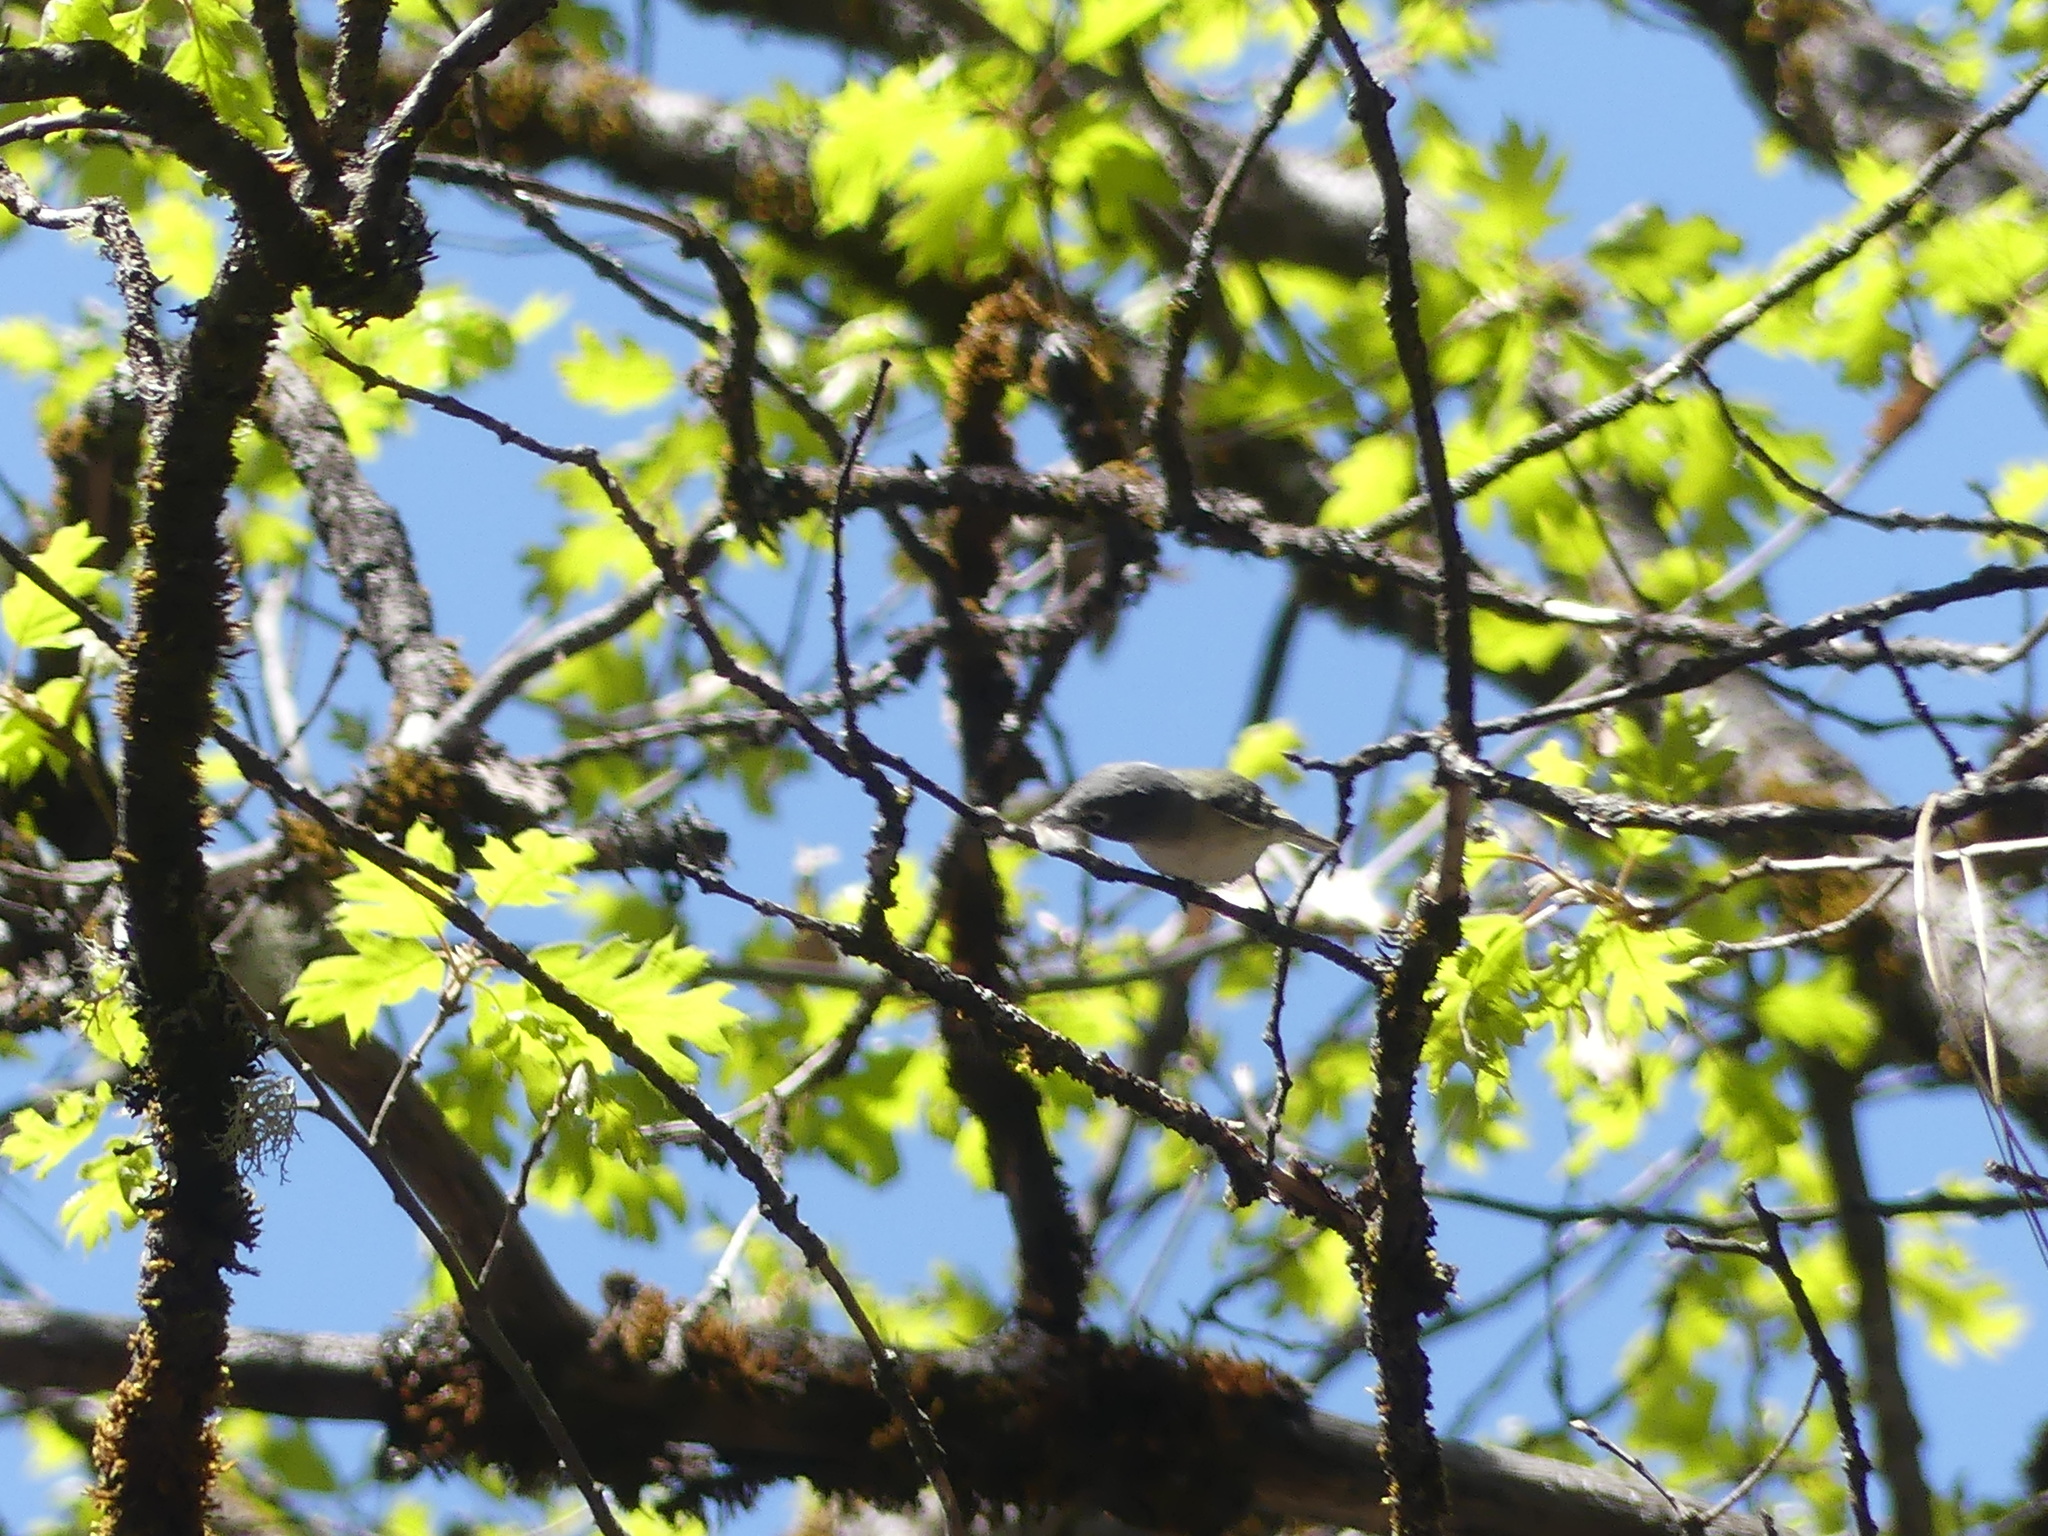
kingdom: Animalia
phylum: Chordata
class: Aves
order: Passeriformes
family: Vireonidae
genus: Vireo
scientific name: Vireo cassinii
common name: Cassin's vireo
